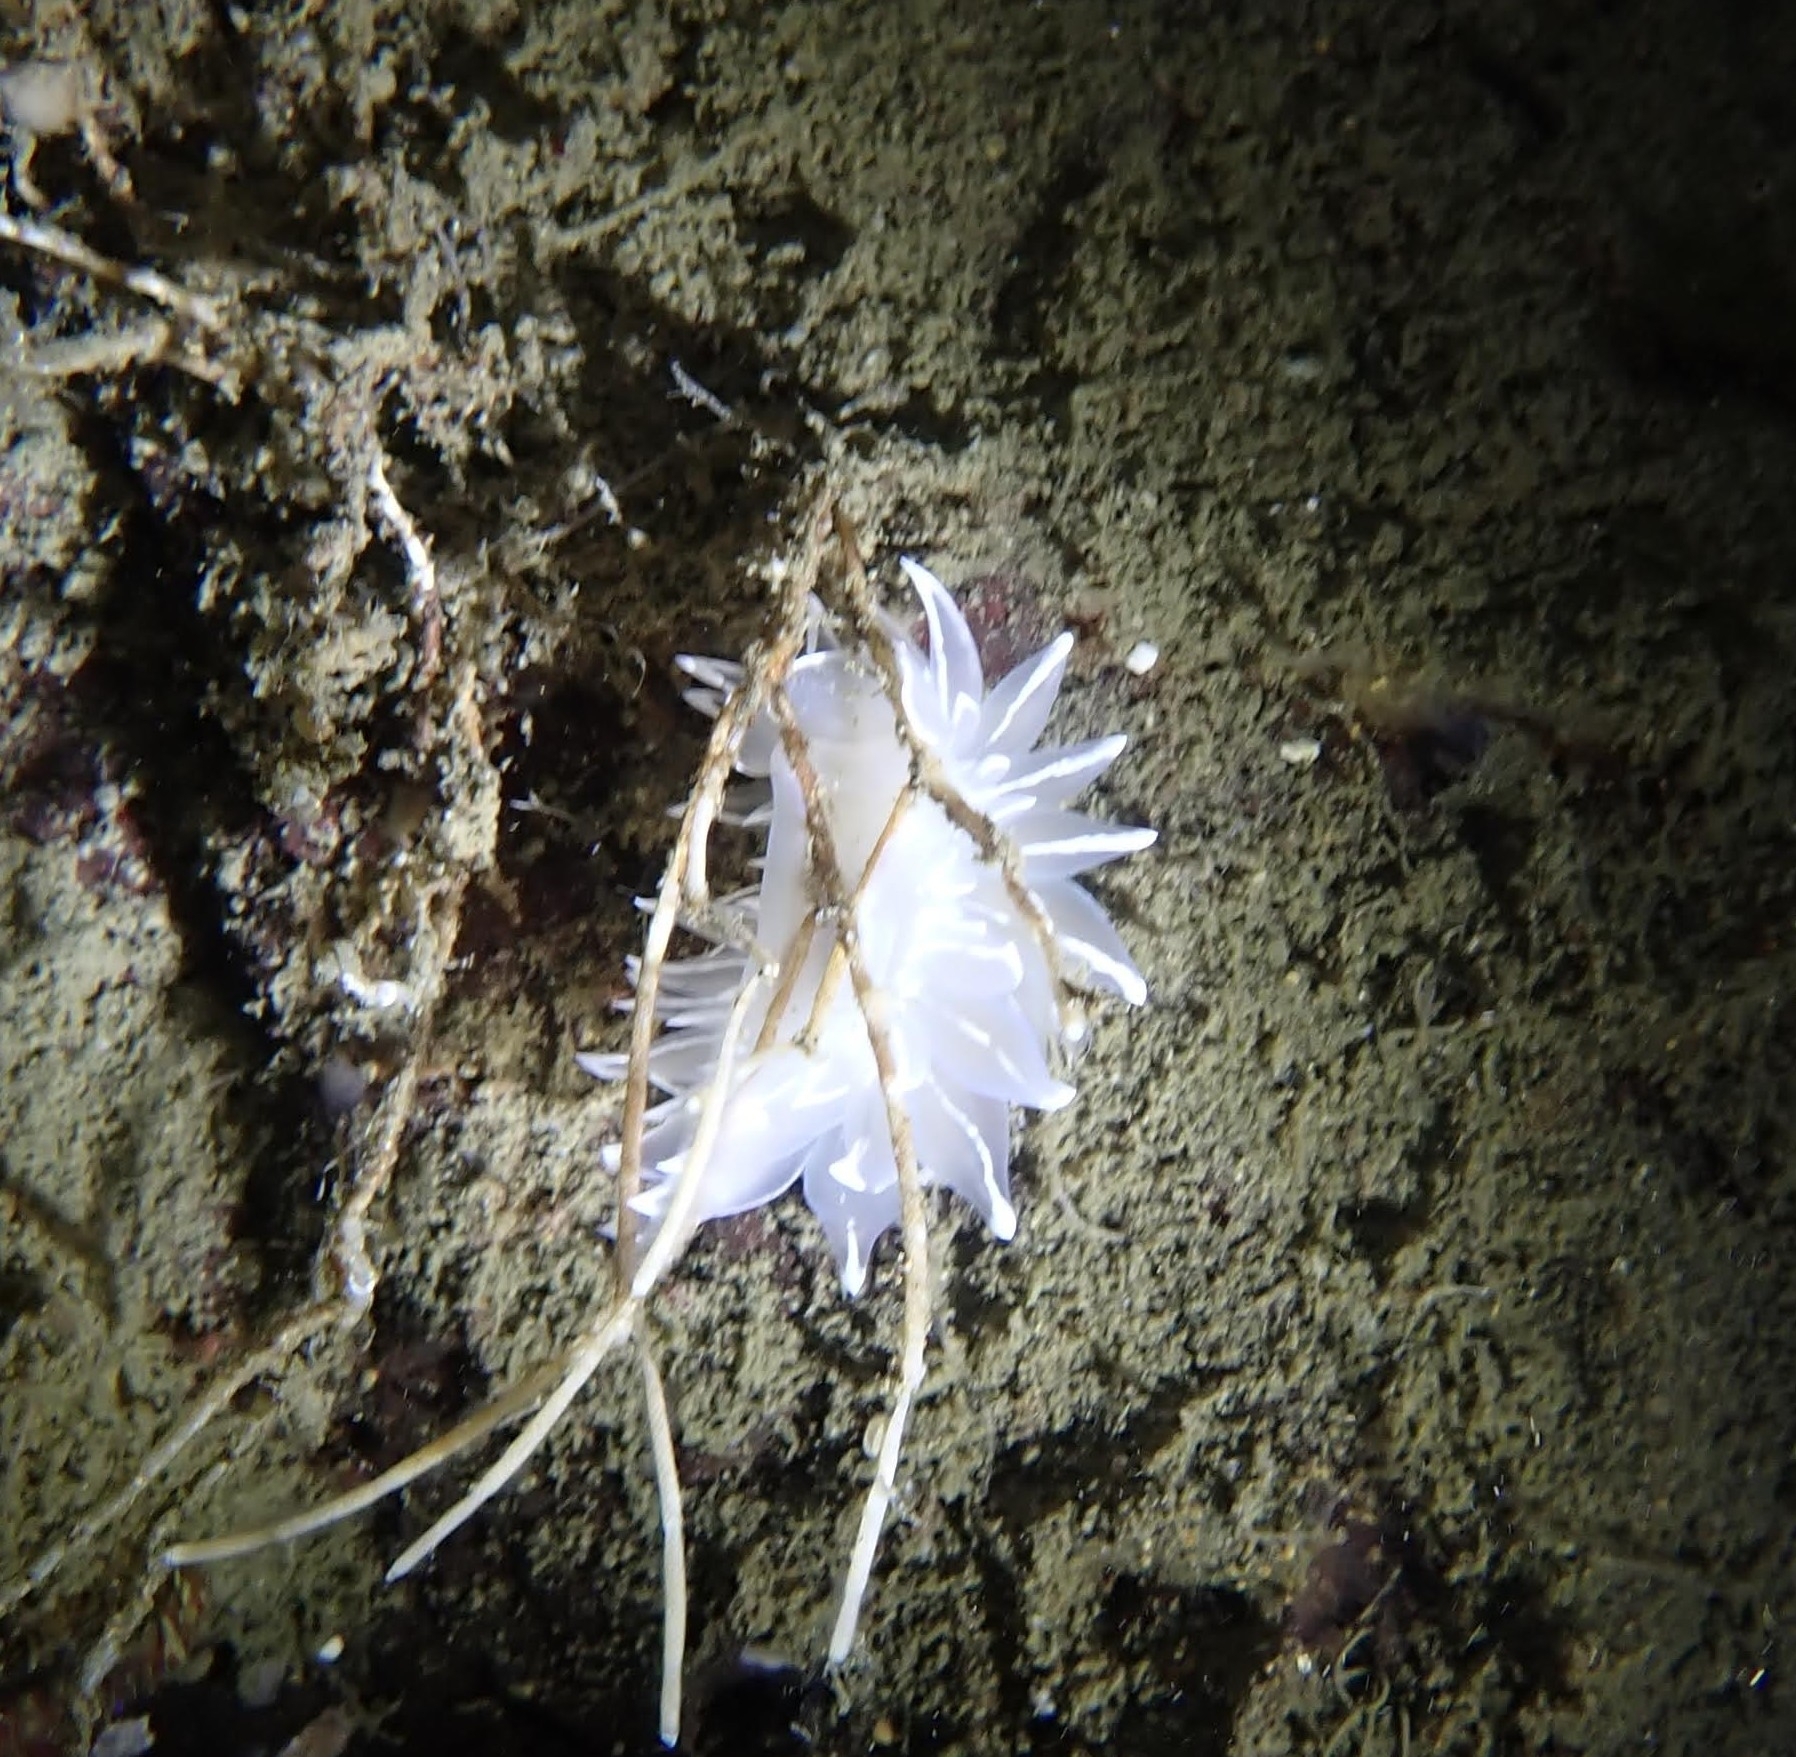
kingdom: Animalia
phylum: Mollusca
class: Gastropoda
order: Nudibranchia
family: Dironidae
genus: Dirona
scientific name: Dirona albolineata
